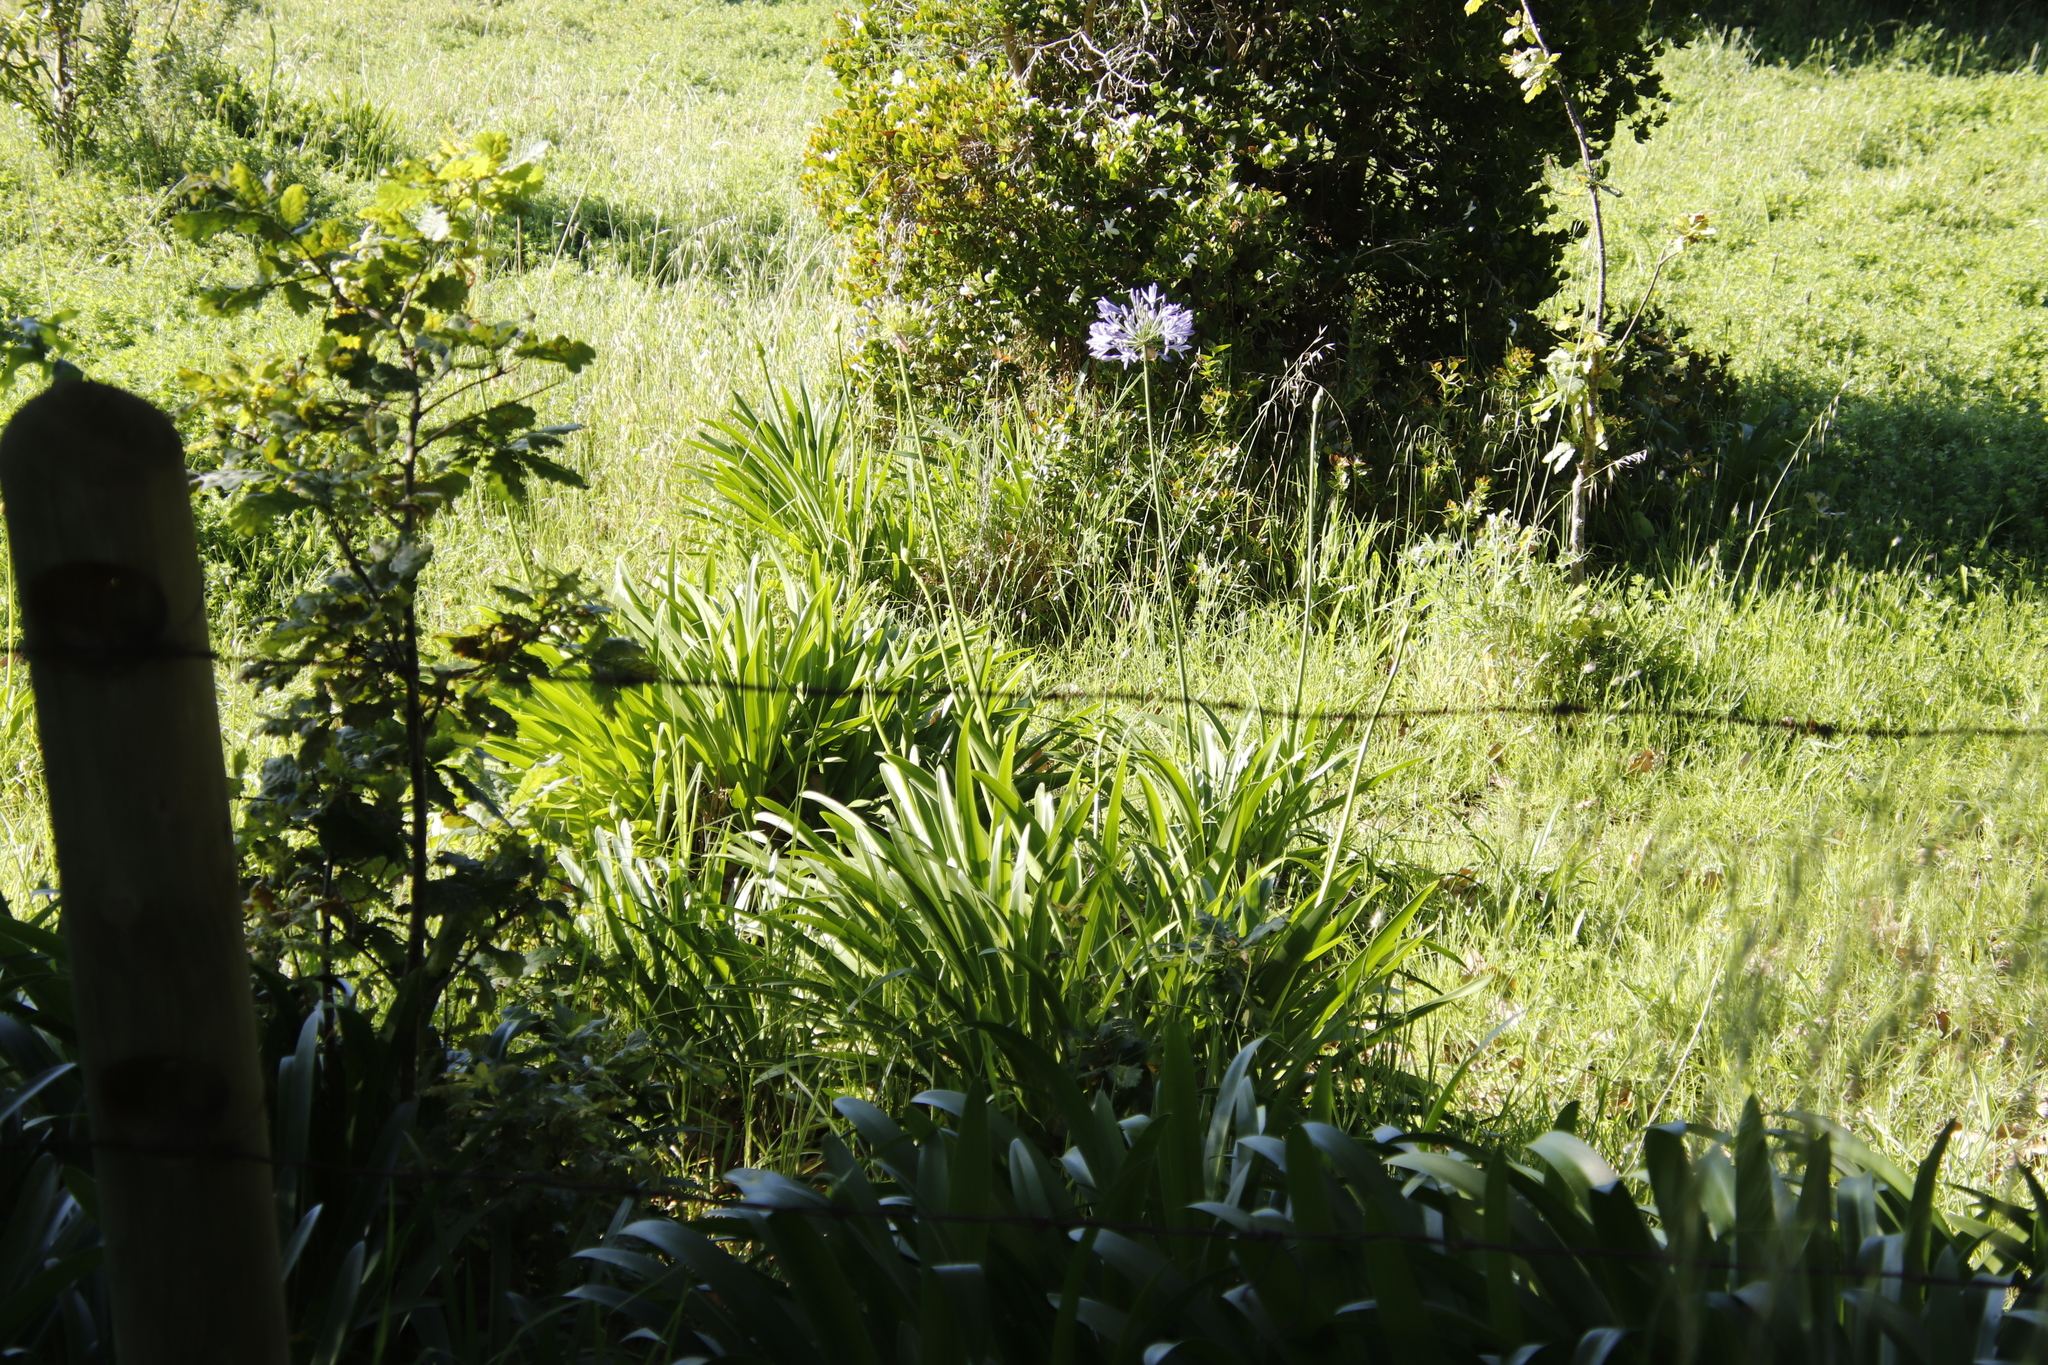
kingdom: Plantae
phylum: Tracheophyta
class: Liliopsida
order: Asparagales
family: Amaryllidaceae
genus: Agapanthus
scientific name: Agapanthus praecox
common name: African-lily
